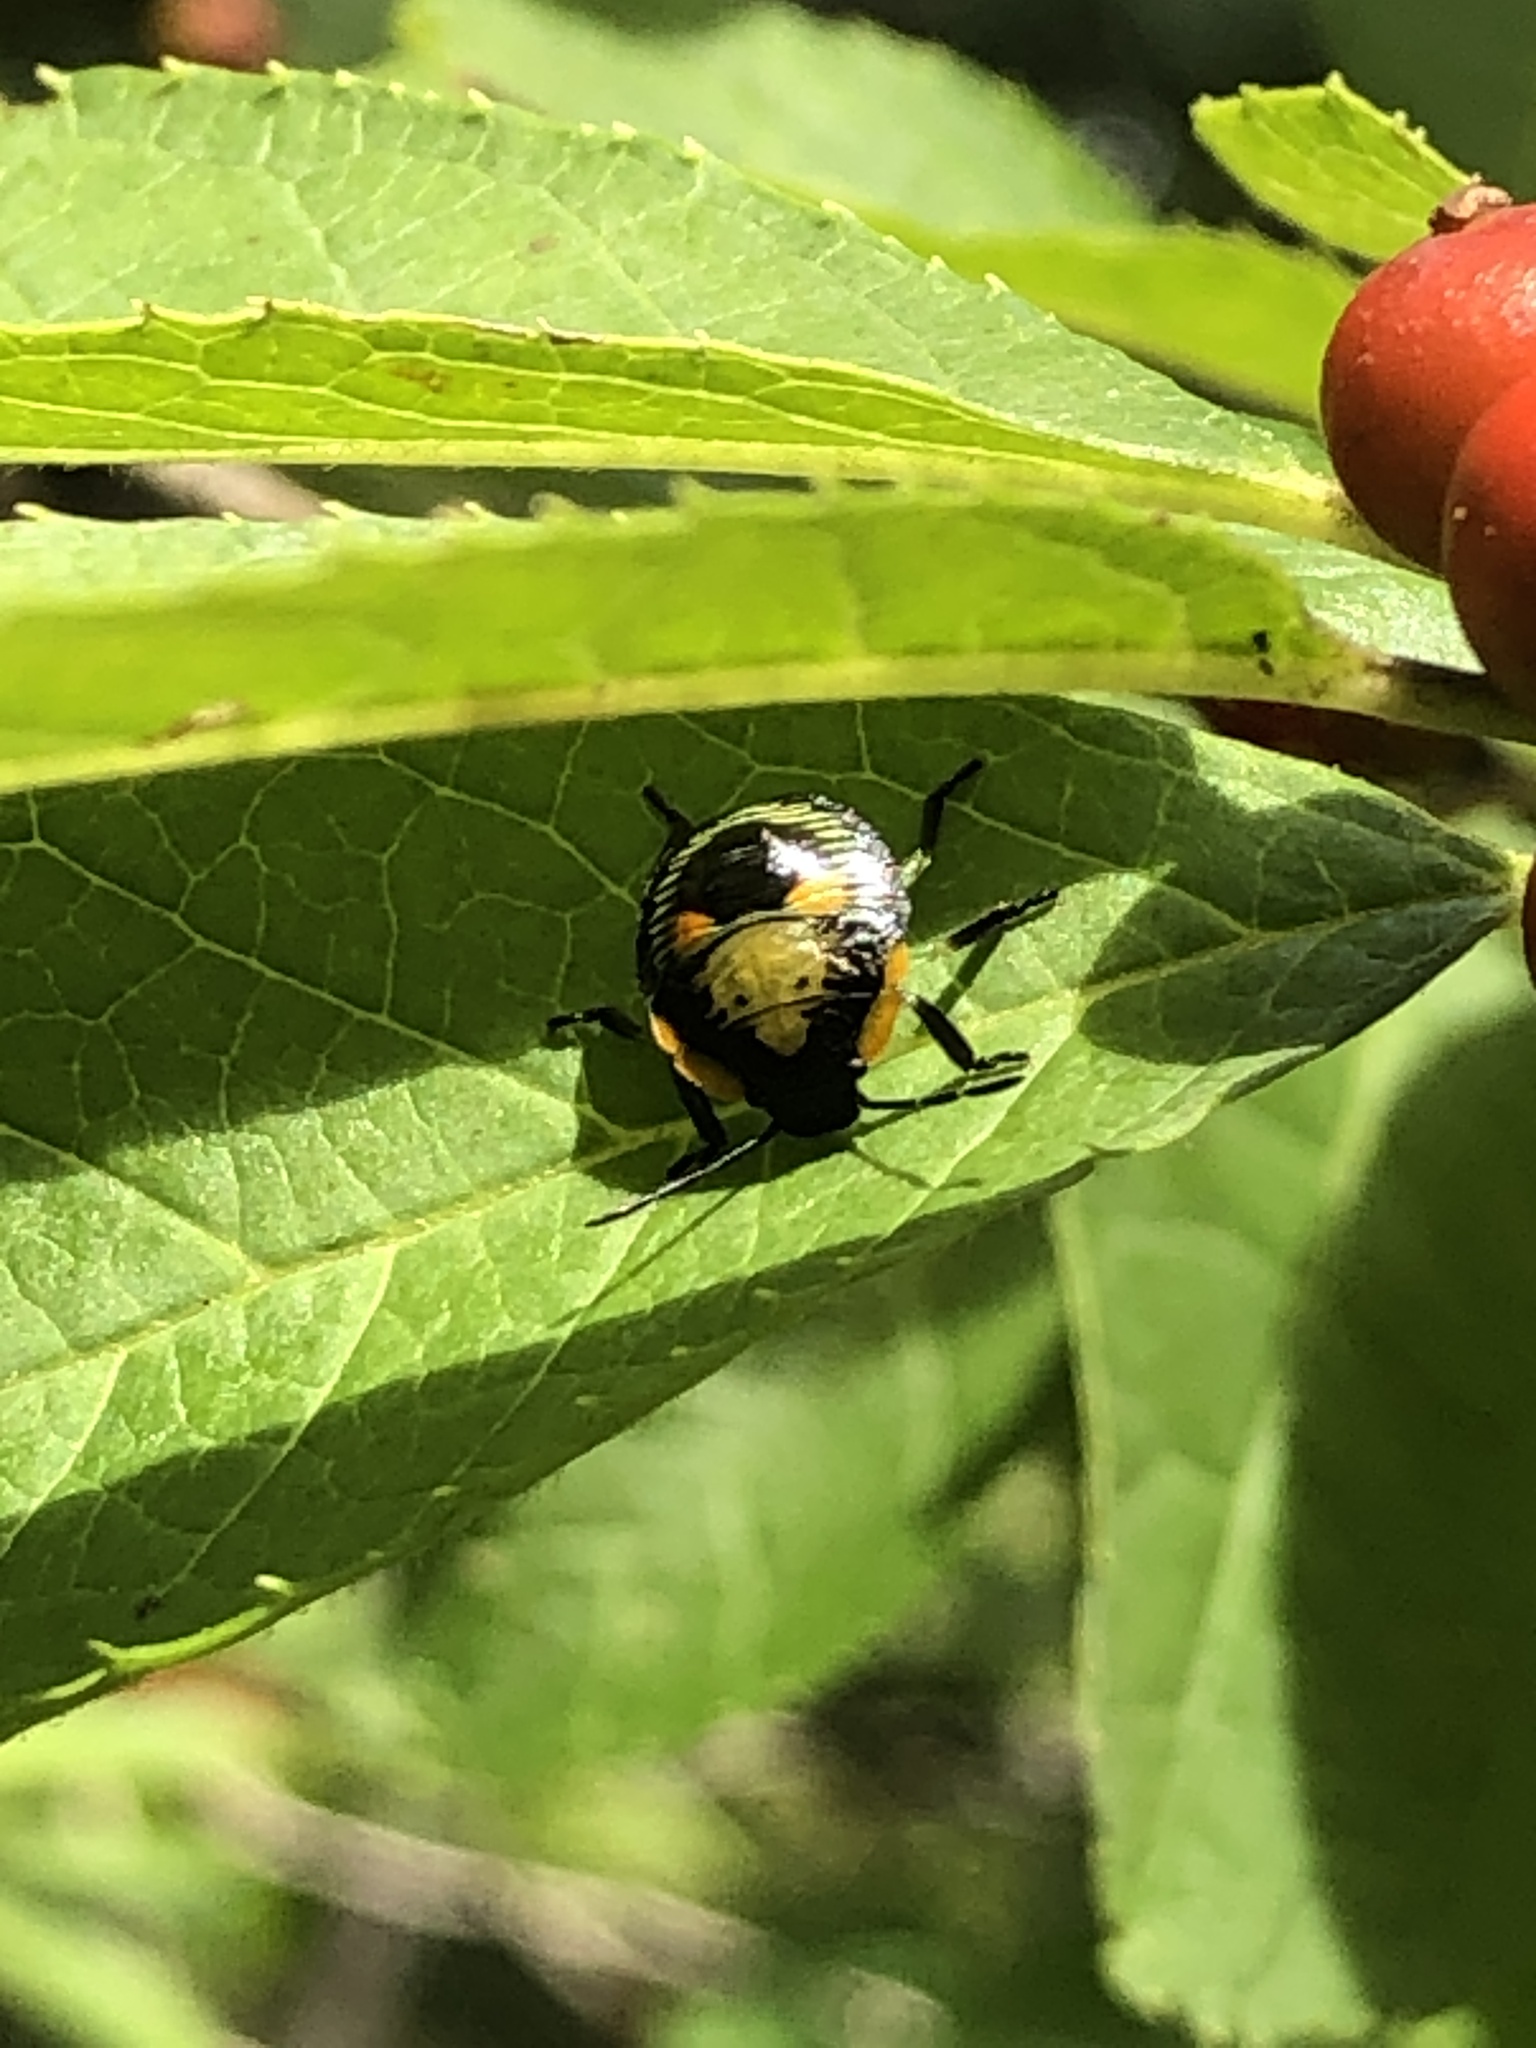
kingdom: Animalia
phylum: Arthropoda
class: Insecta
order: Hemiptera
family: Pentatomidae
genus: Chinavia
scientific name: Chinavia hilaris
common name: Green stink bug
